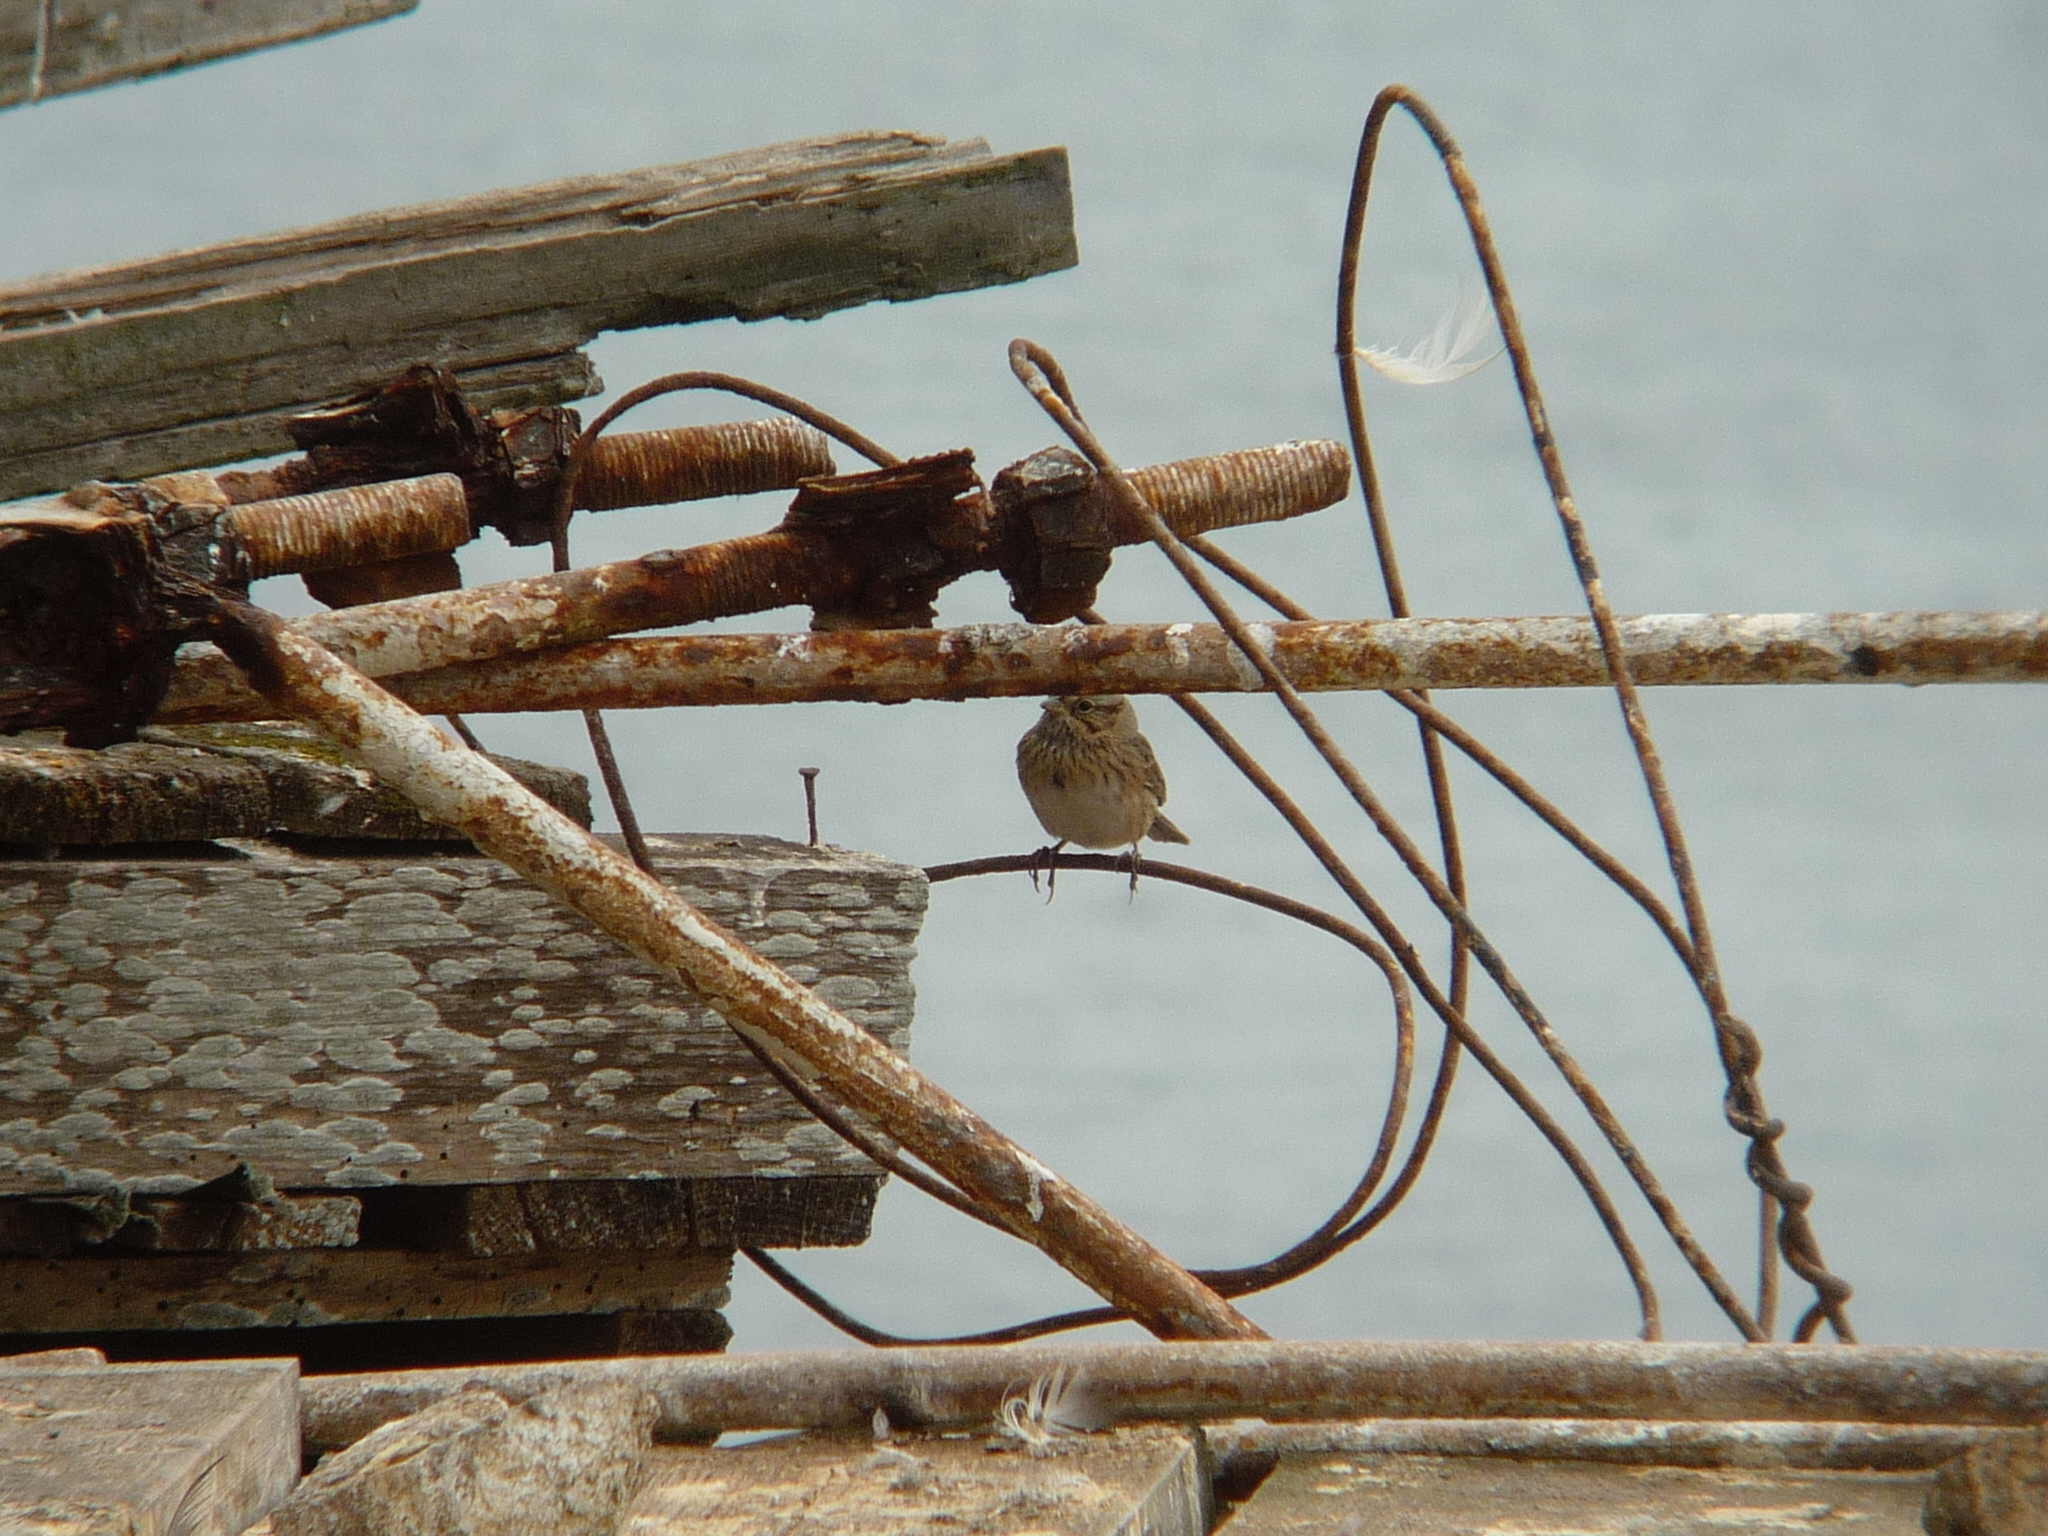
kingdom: Animalia
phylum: Chordata
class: Aves
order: Passeriformes
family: Passerellidae
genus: Melospiza
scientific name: Melospiza lincolnii
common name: Lincoln's sparrow
